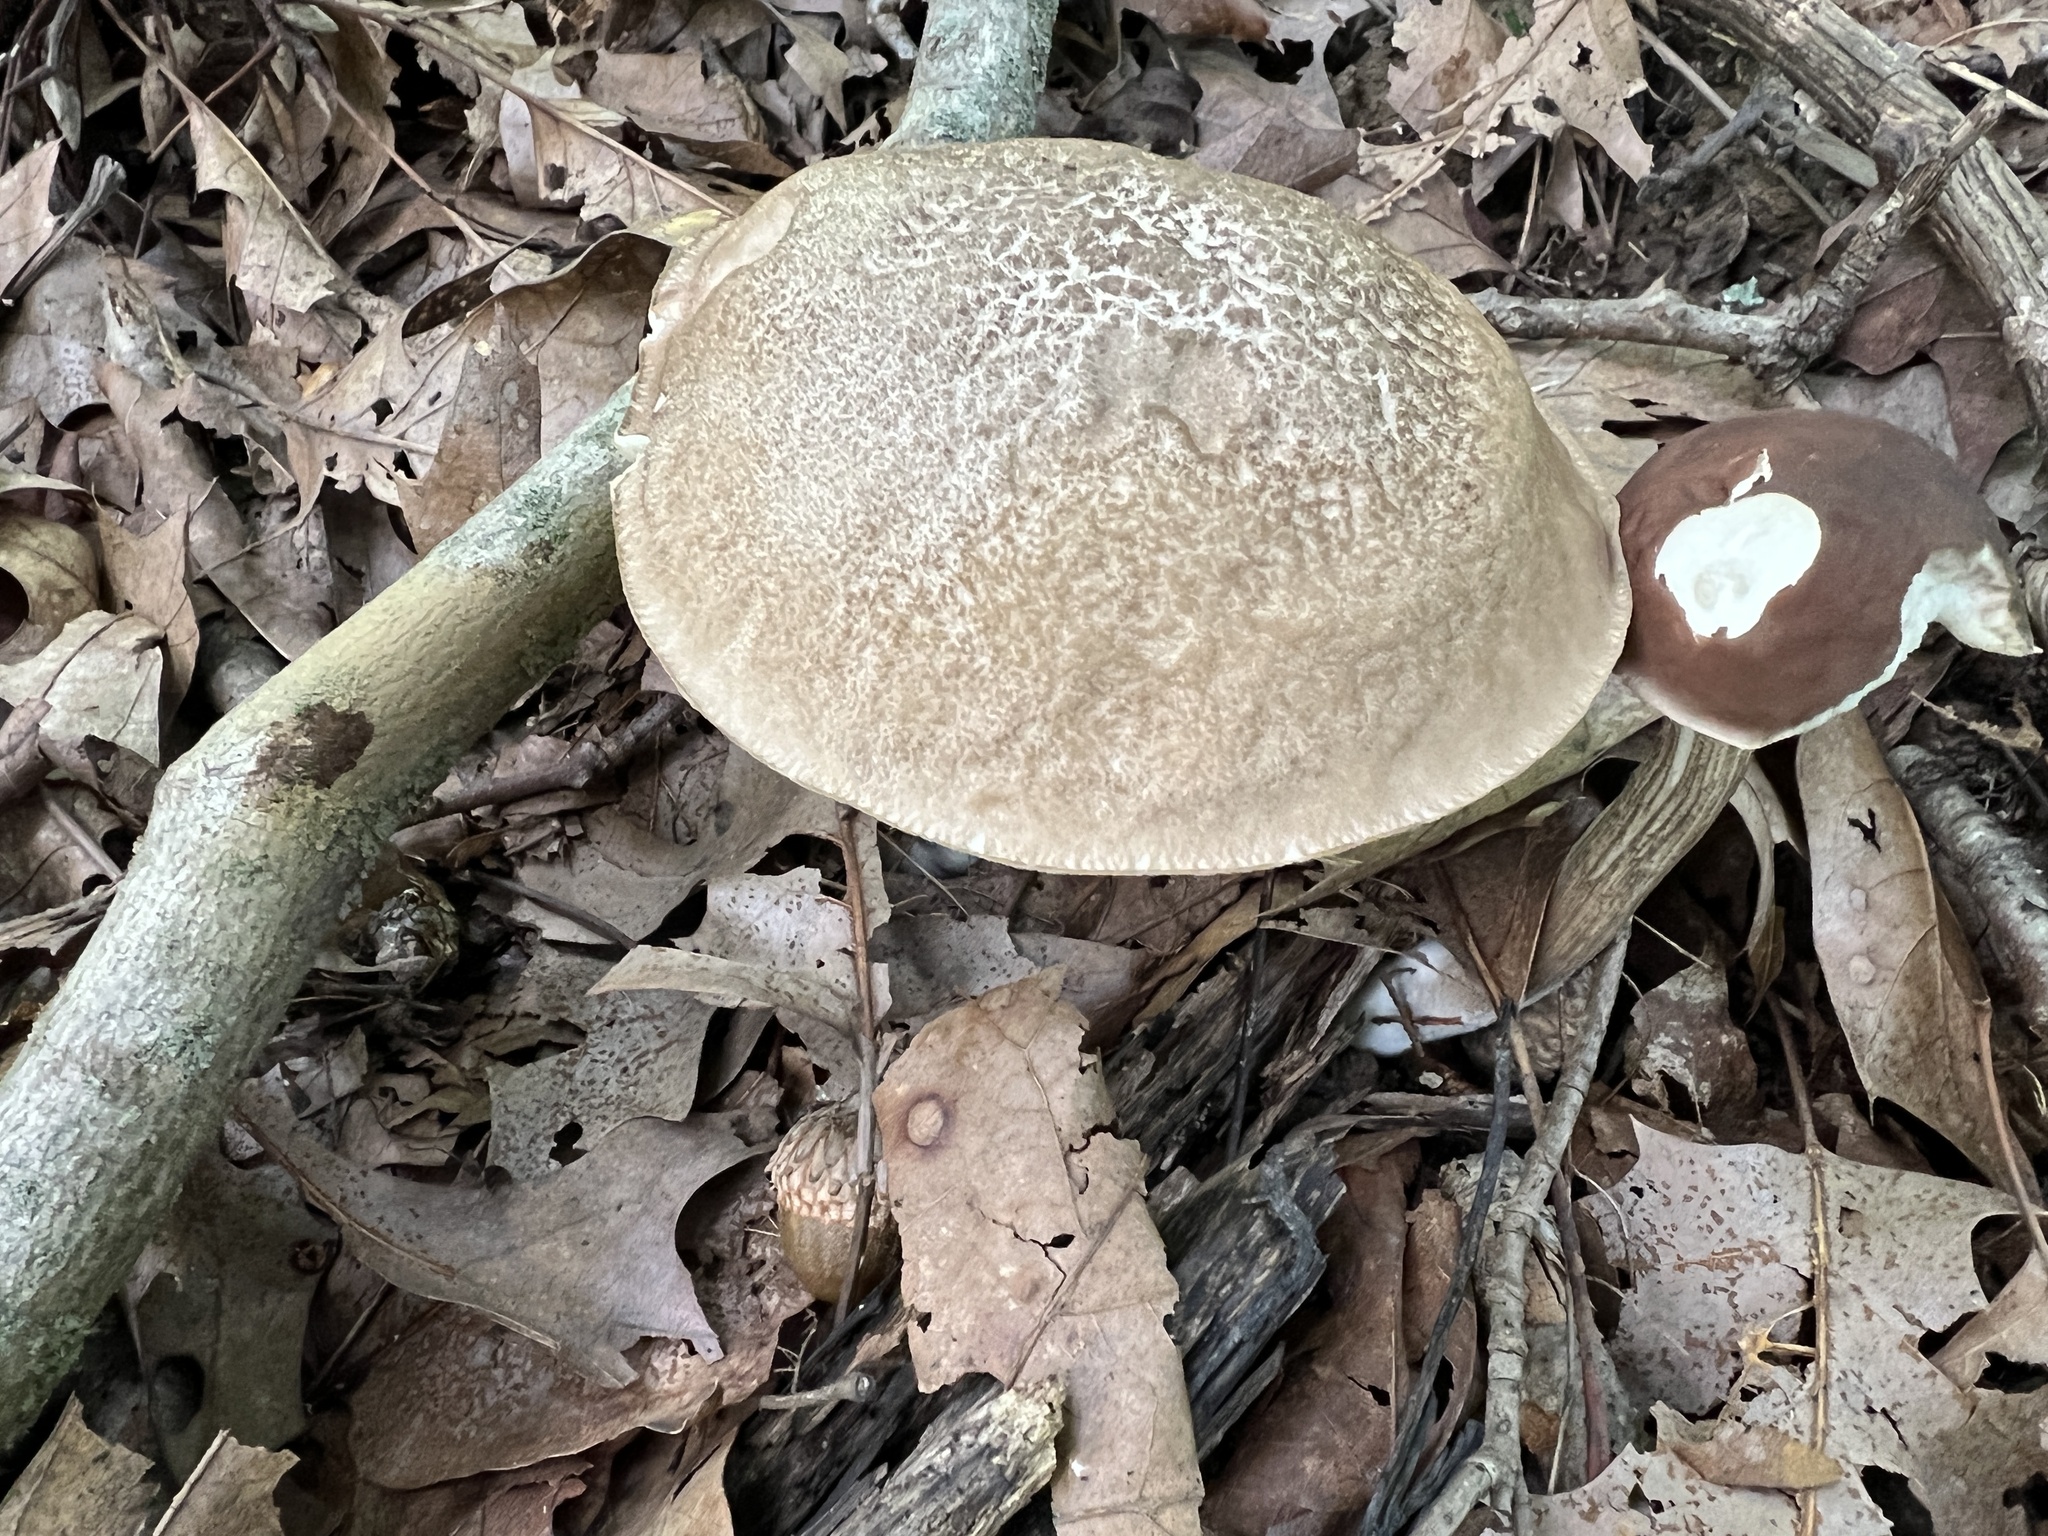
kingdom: Fungi
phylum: Basidiomycota
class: Agaricomycetes
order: Boletales
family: Boletaceae
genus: Leccinellum
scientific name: Leccinellum albellum
